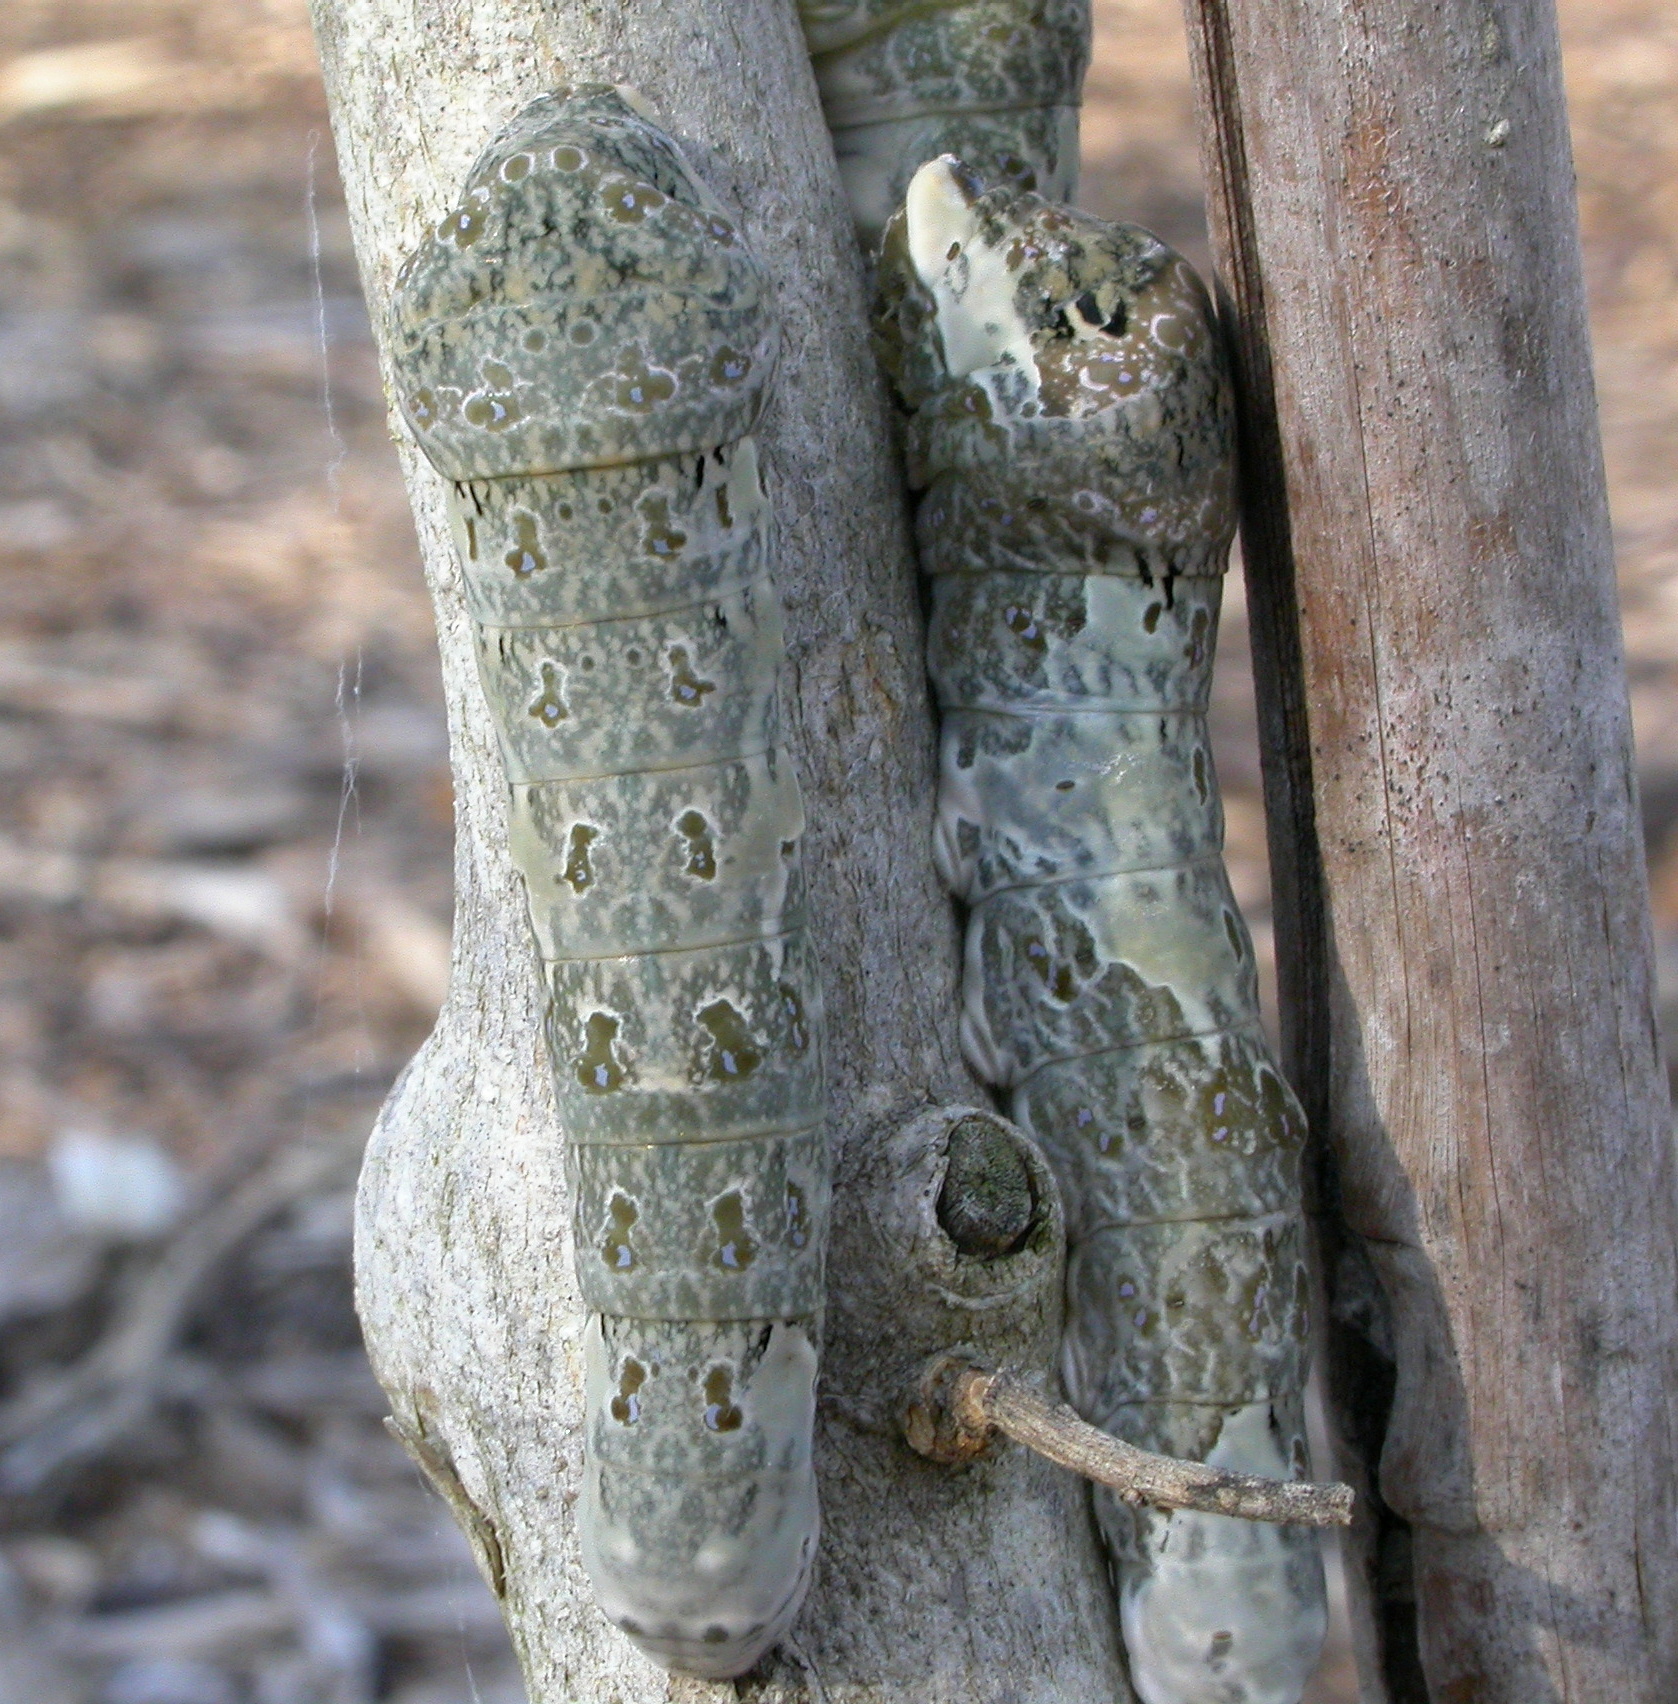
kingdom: Animalia
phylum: Arthropoda
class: Insecta
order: Lepidoptera
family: Papilionidae
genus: Papilio
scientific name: Papilio rumiko
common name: Western giant swallowtail
